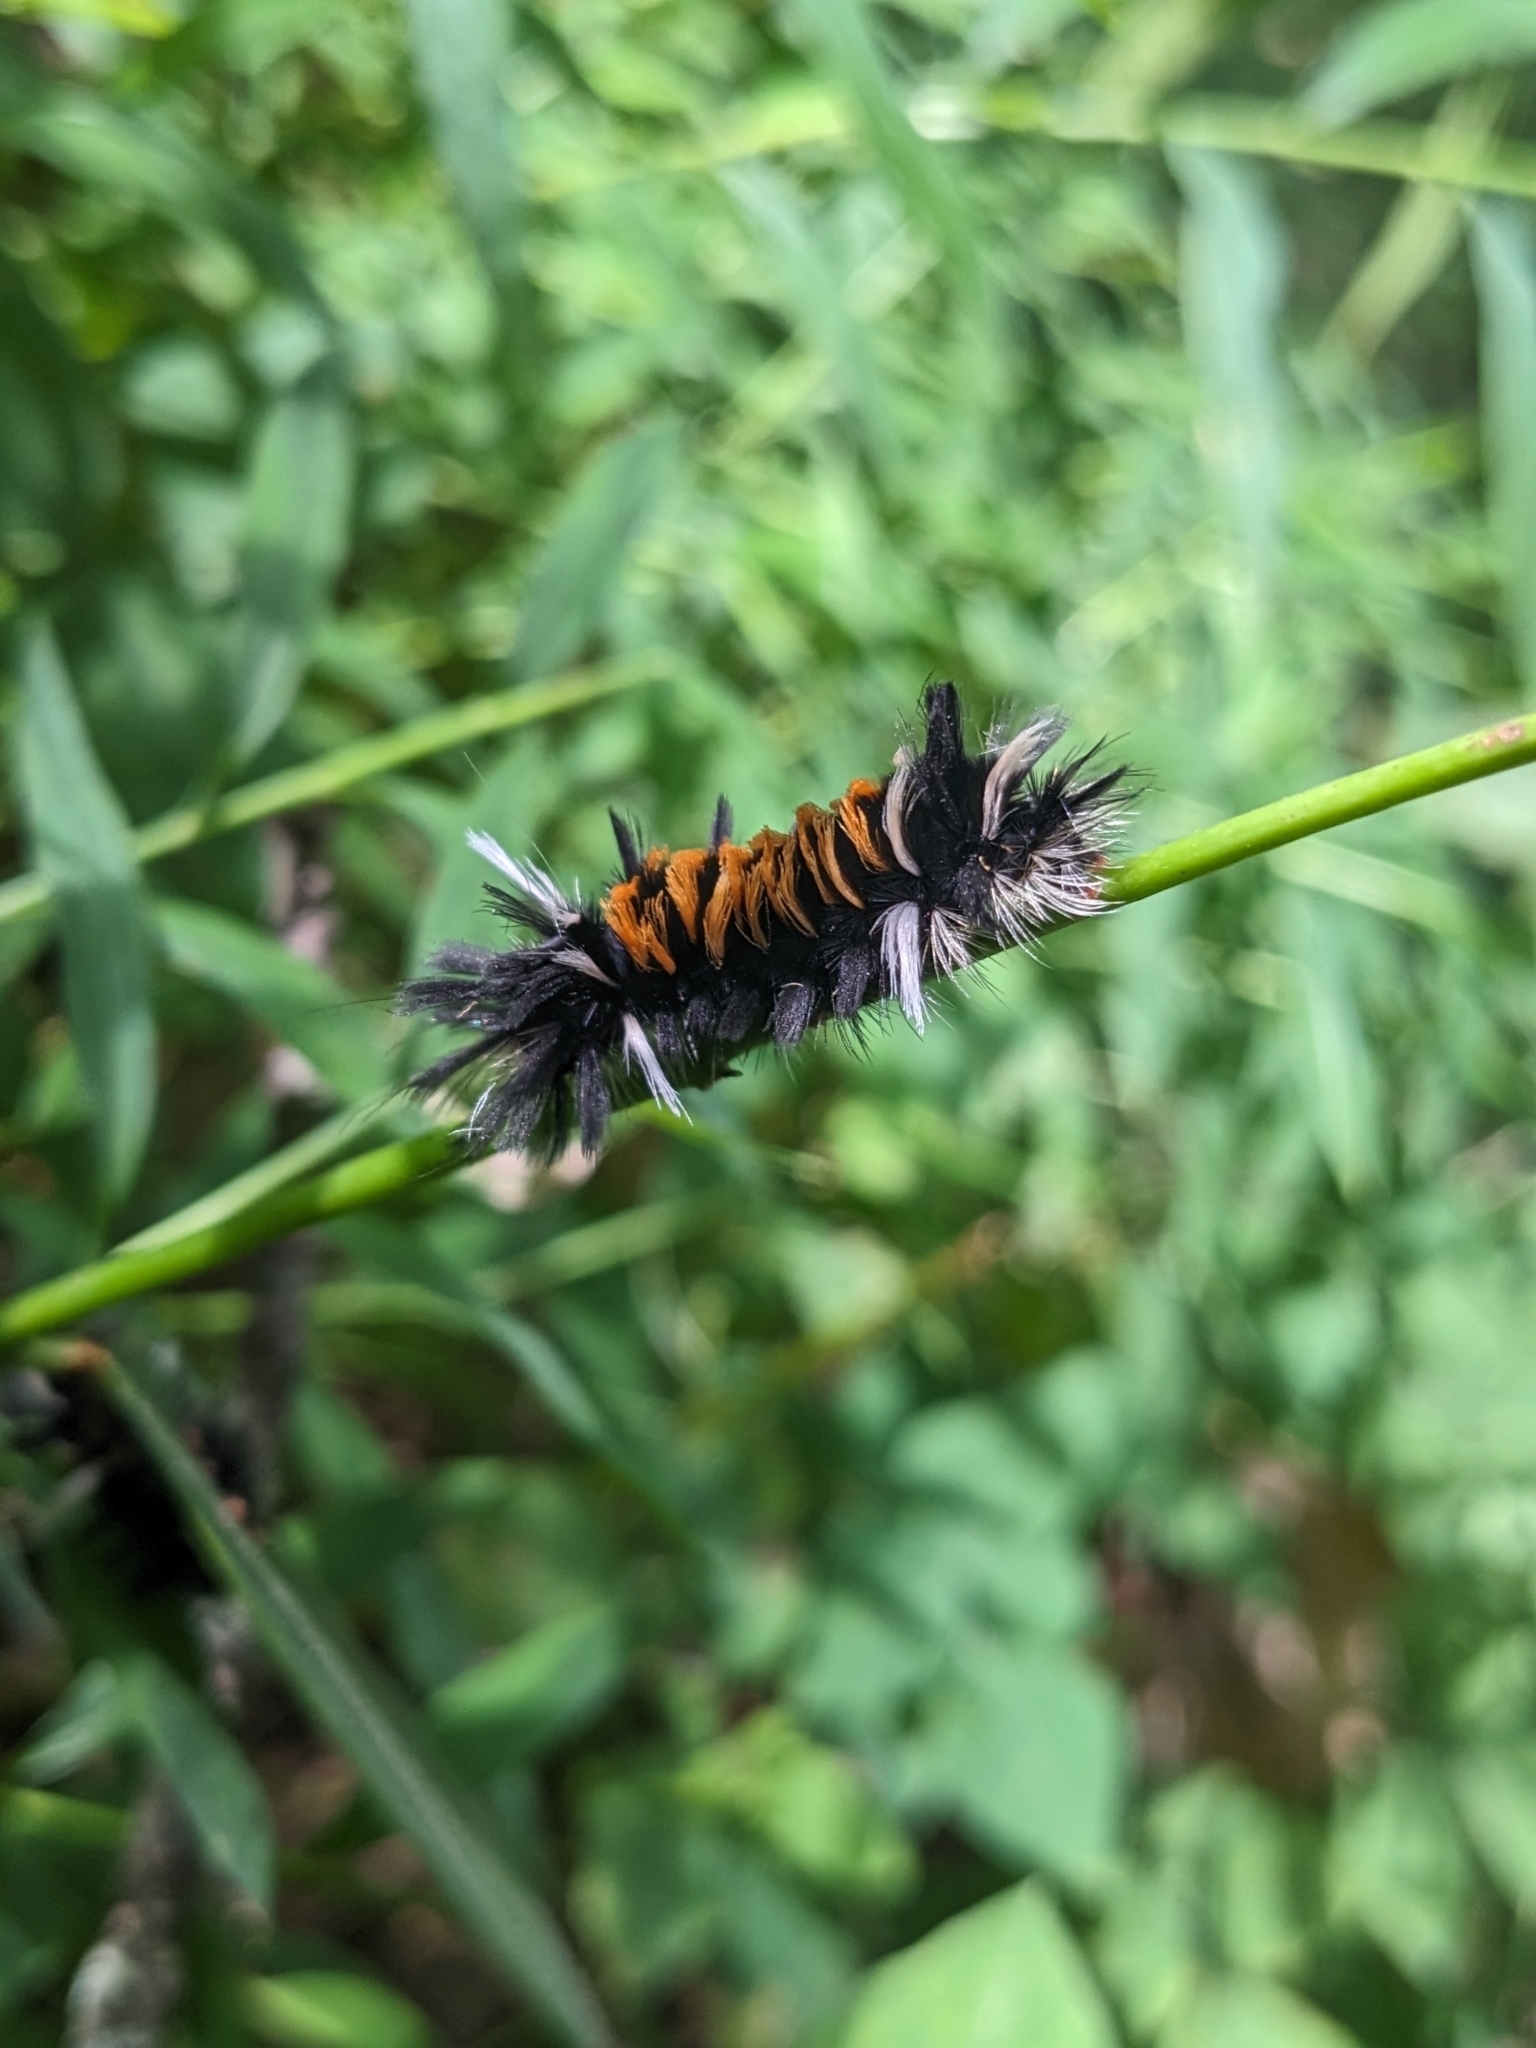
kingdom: Animalia
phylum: Arthropoda
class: Insecta
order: Lepidoptera
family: Erebidae
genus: Euchaetes
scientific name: Euchaetes egle
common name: Milkweed tussock moth
